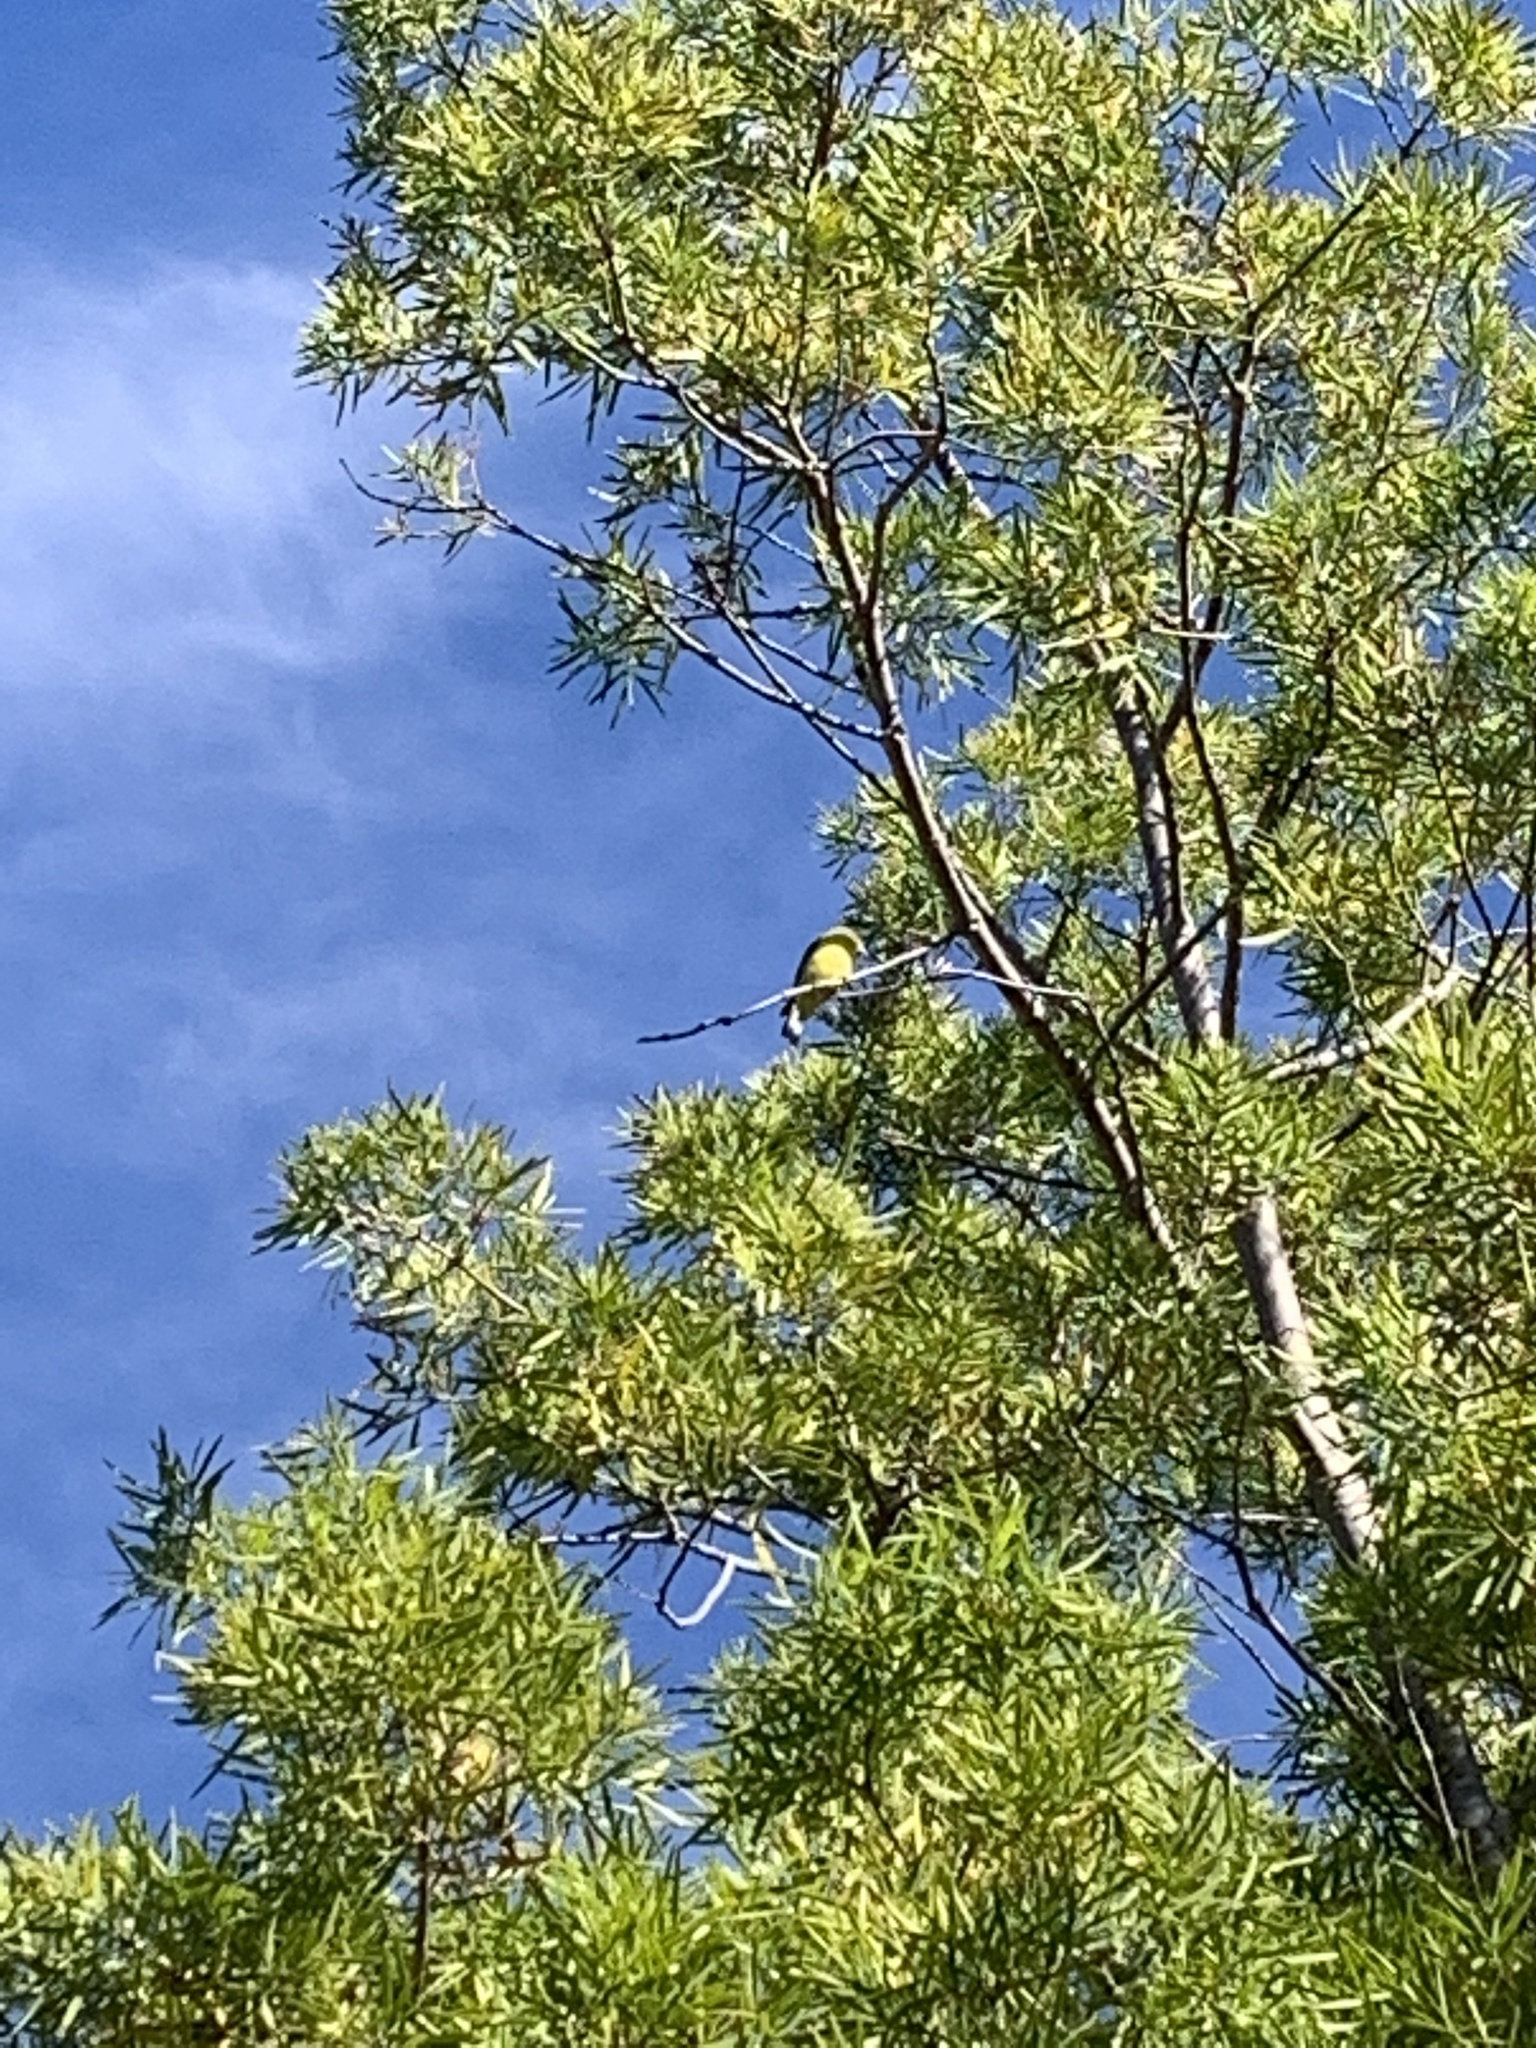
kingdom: Animalia
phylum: Chordata
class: Aves
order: Passeriformes
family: Fringillidae
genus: Spinus
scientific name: Spinus psaltria
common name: Lesser goldfinch
